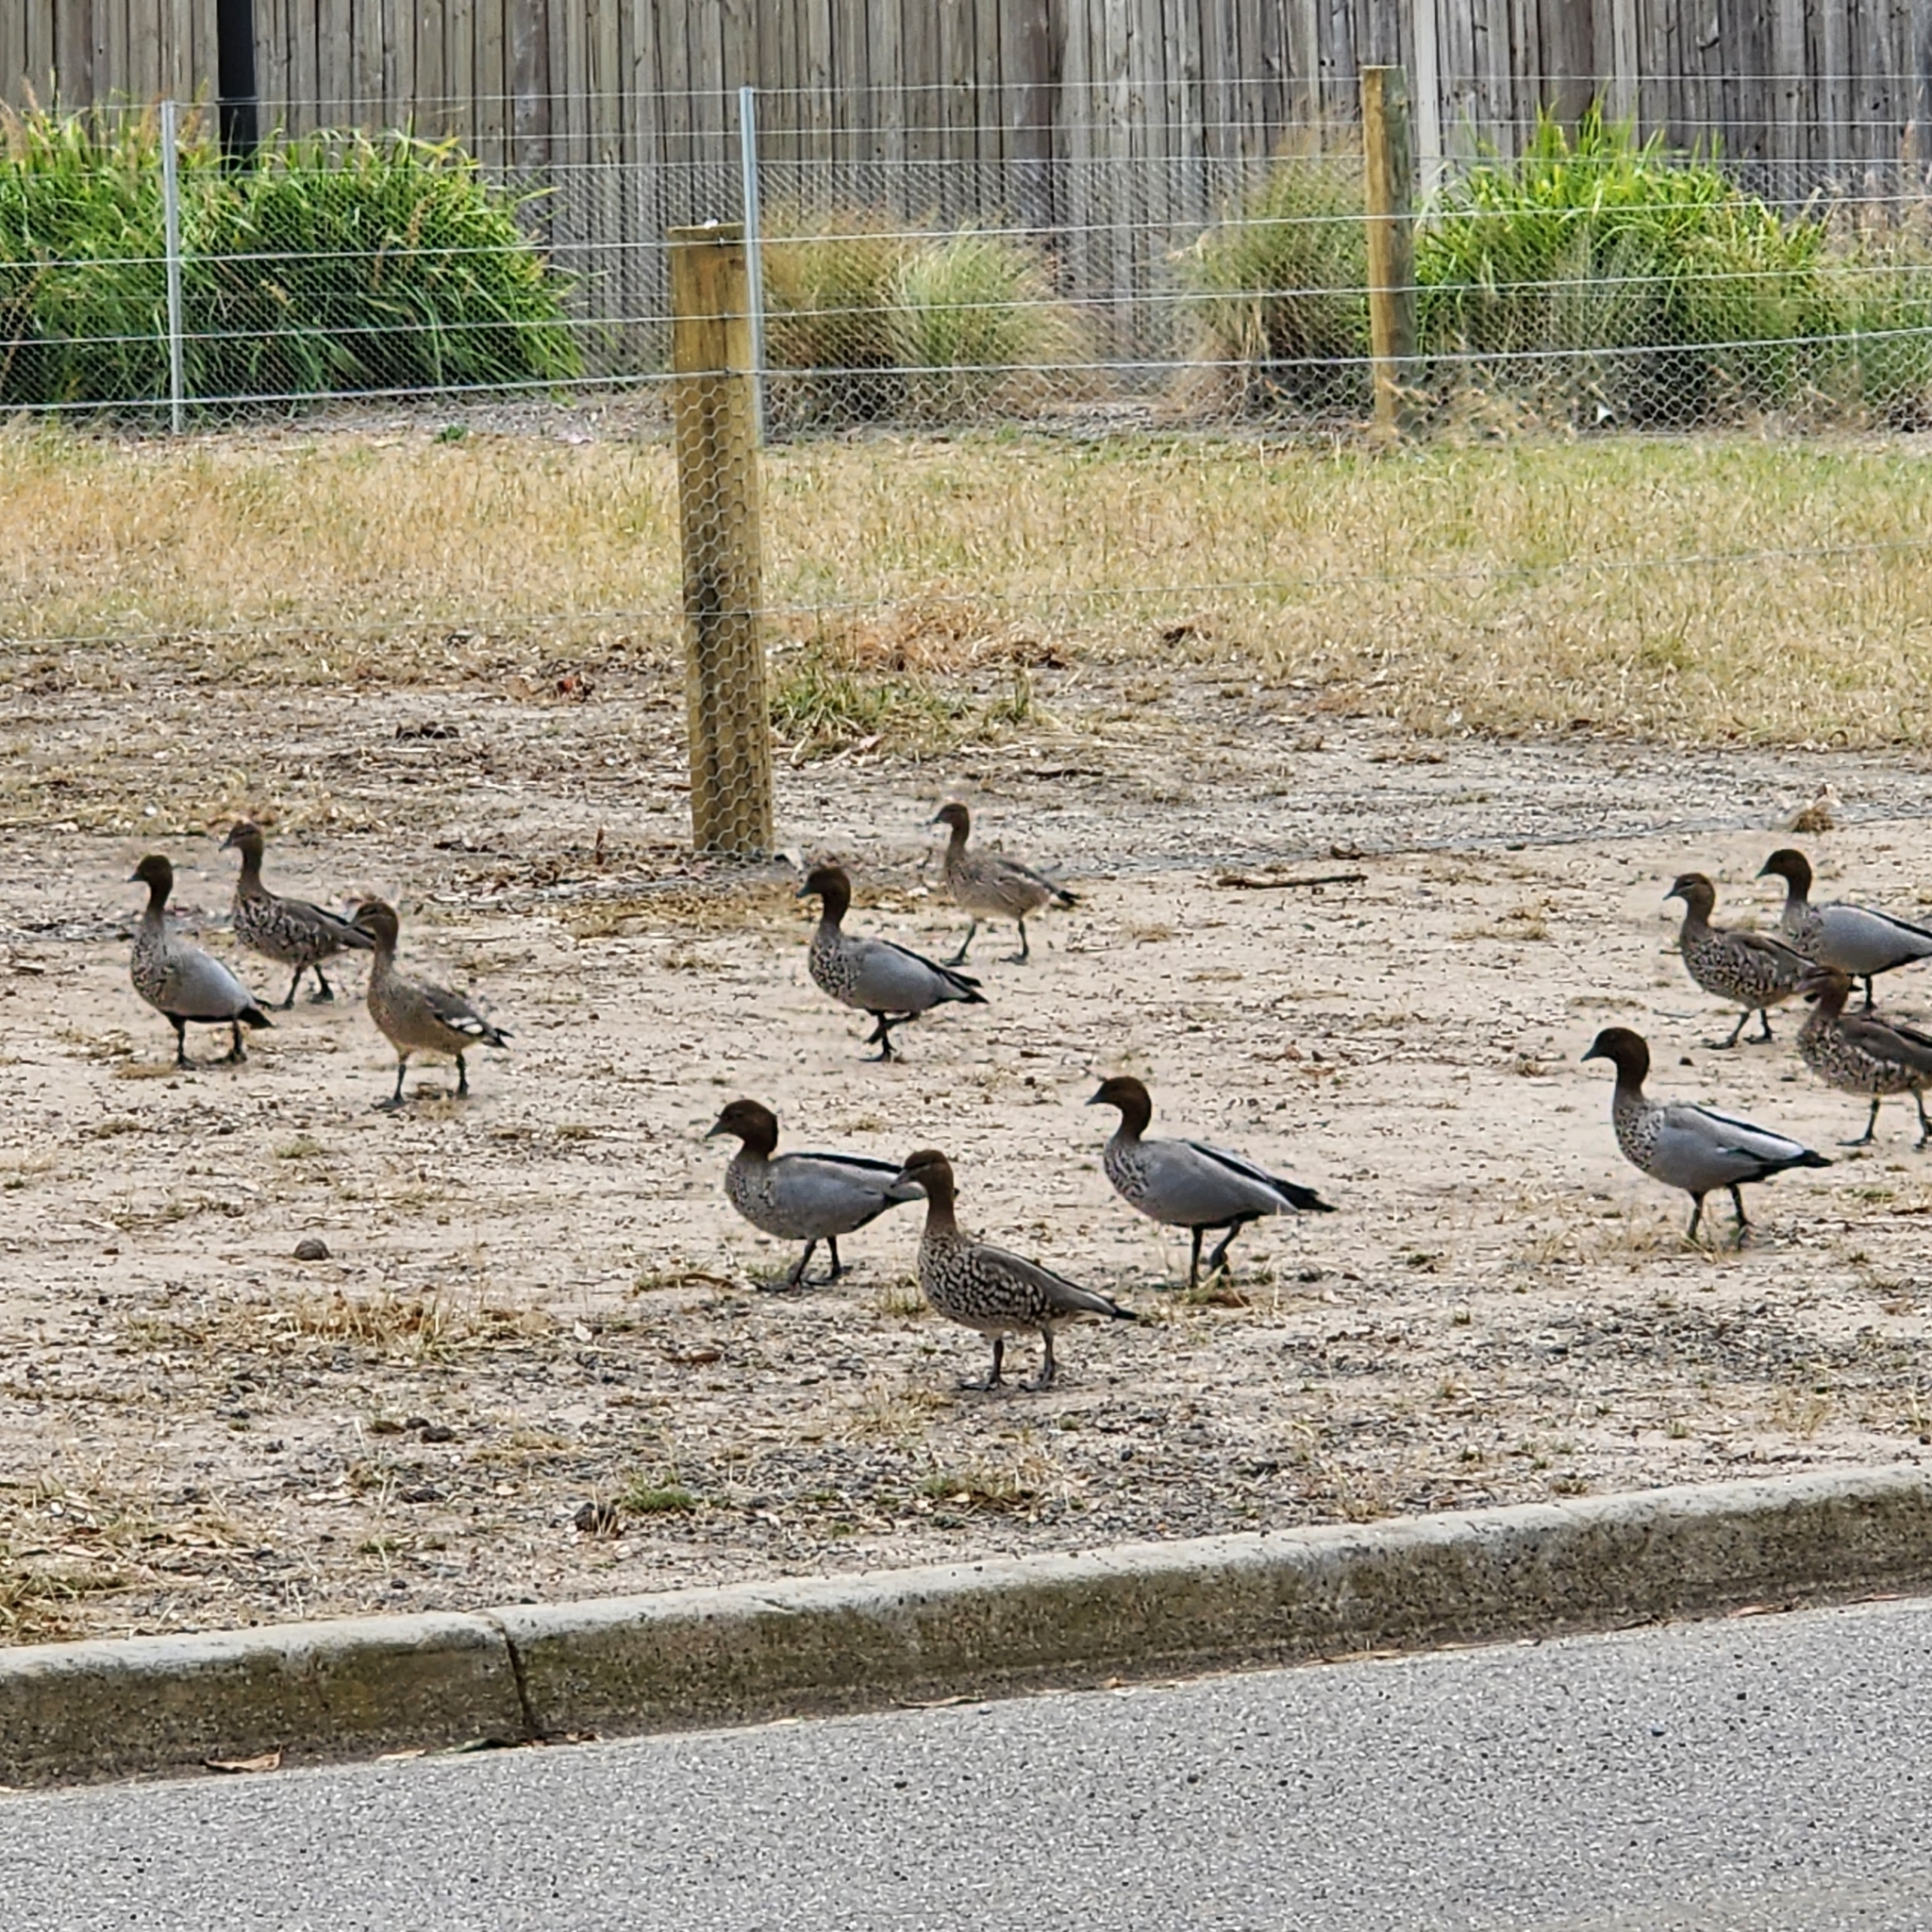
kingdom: Animalia
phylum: Chordata
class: Aves
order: Anseriformes
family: Anatidae
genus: Chenonetta
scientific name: Chenonetta jubata
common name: Maned duck
